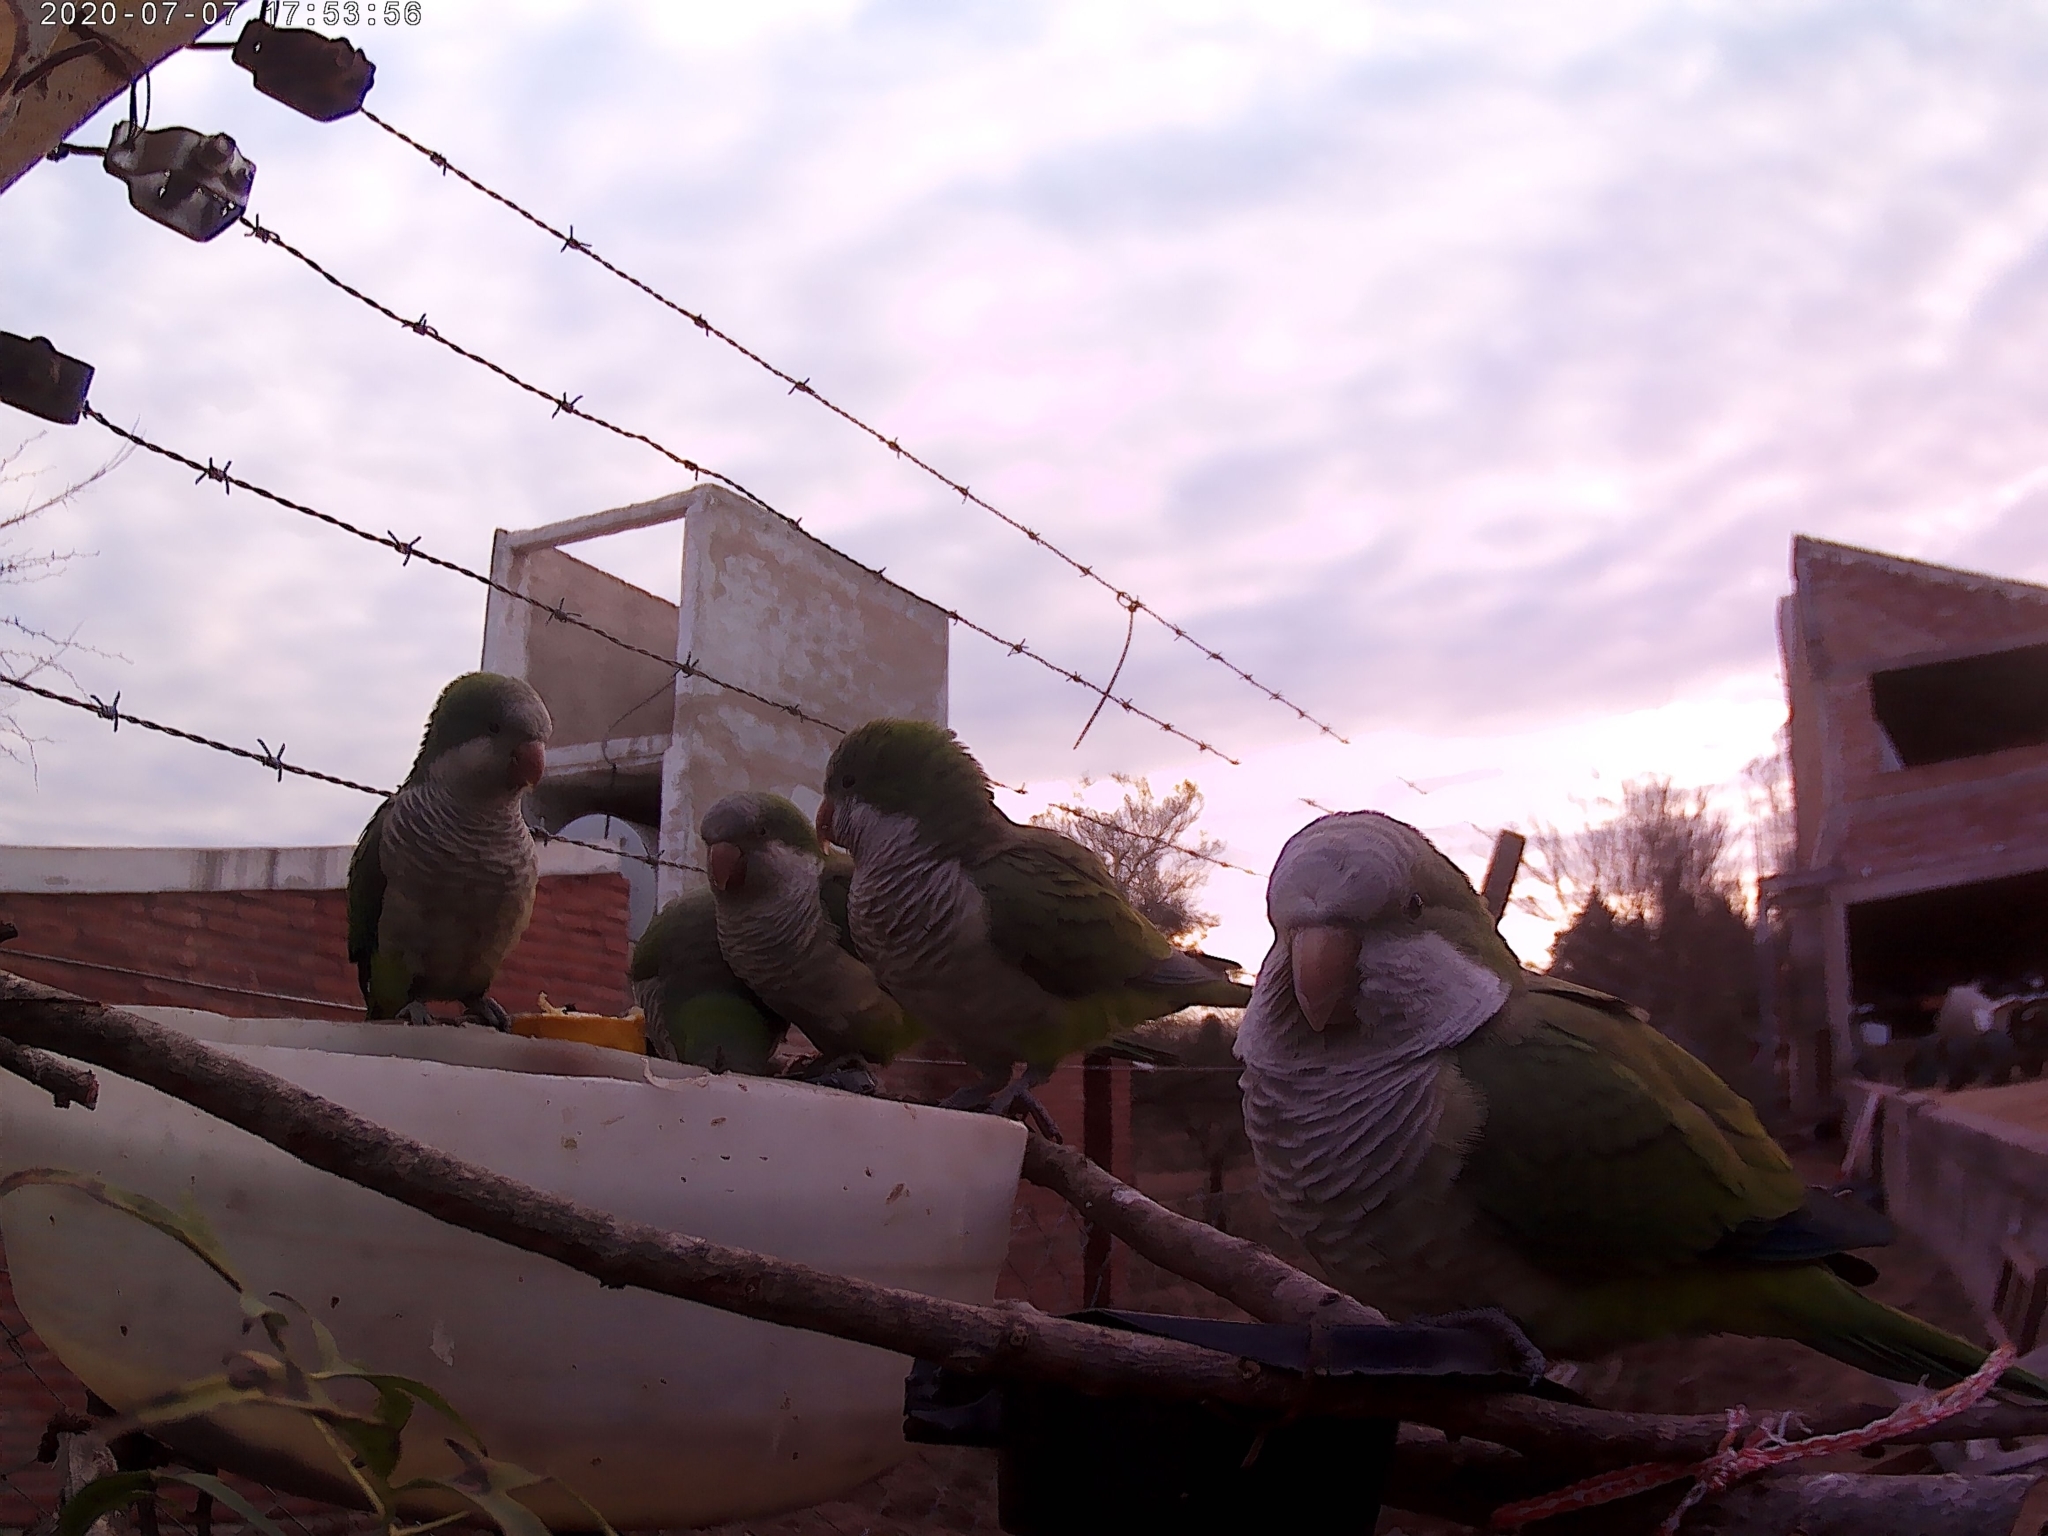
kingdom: Animalia
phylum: Chordata
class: Aves
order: Psittaciformes
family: Psittacidae
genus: Myiopsitta
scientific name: Myiopsitta monachus
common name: Monk parakeet
